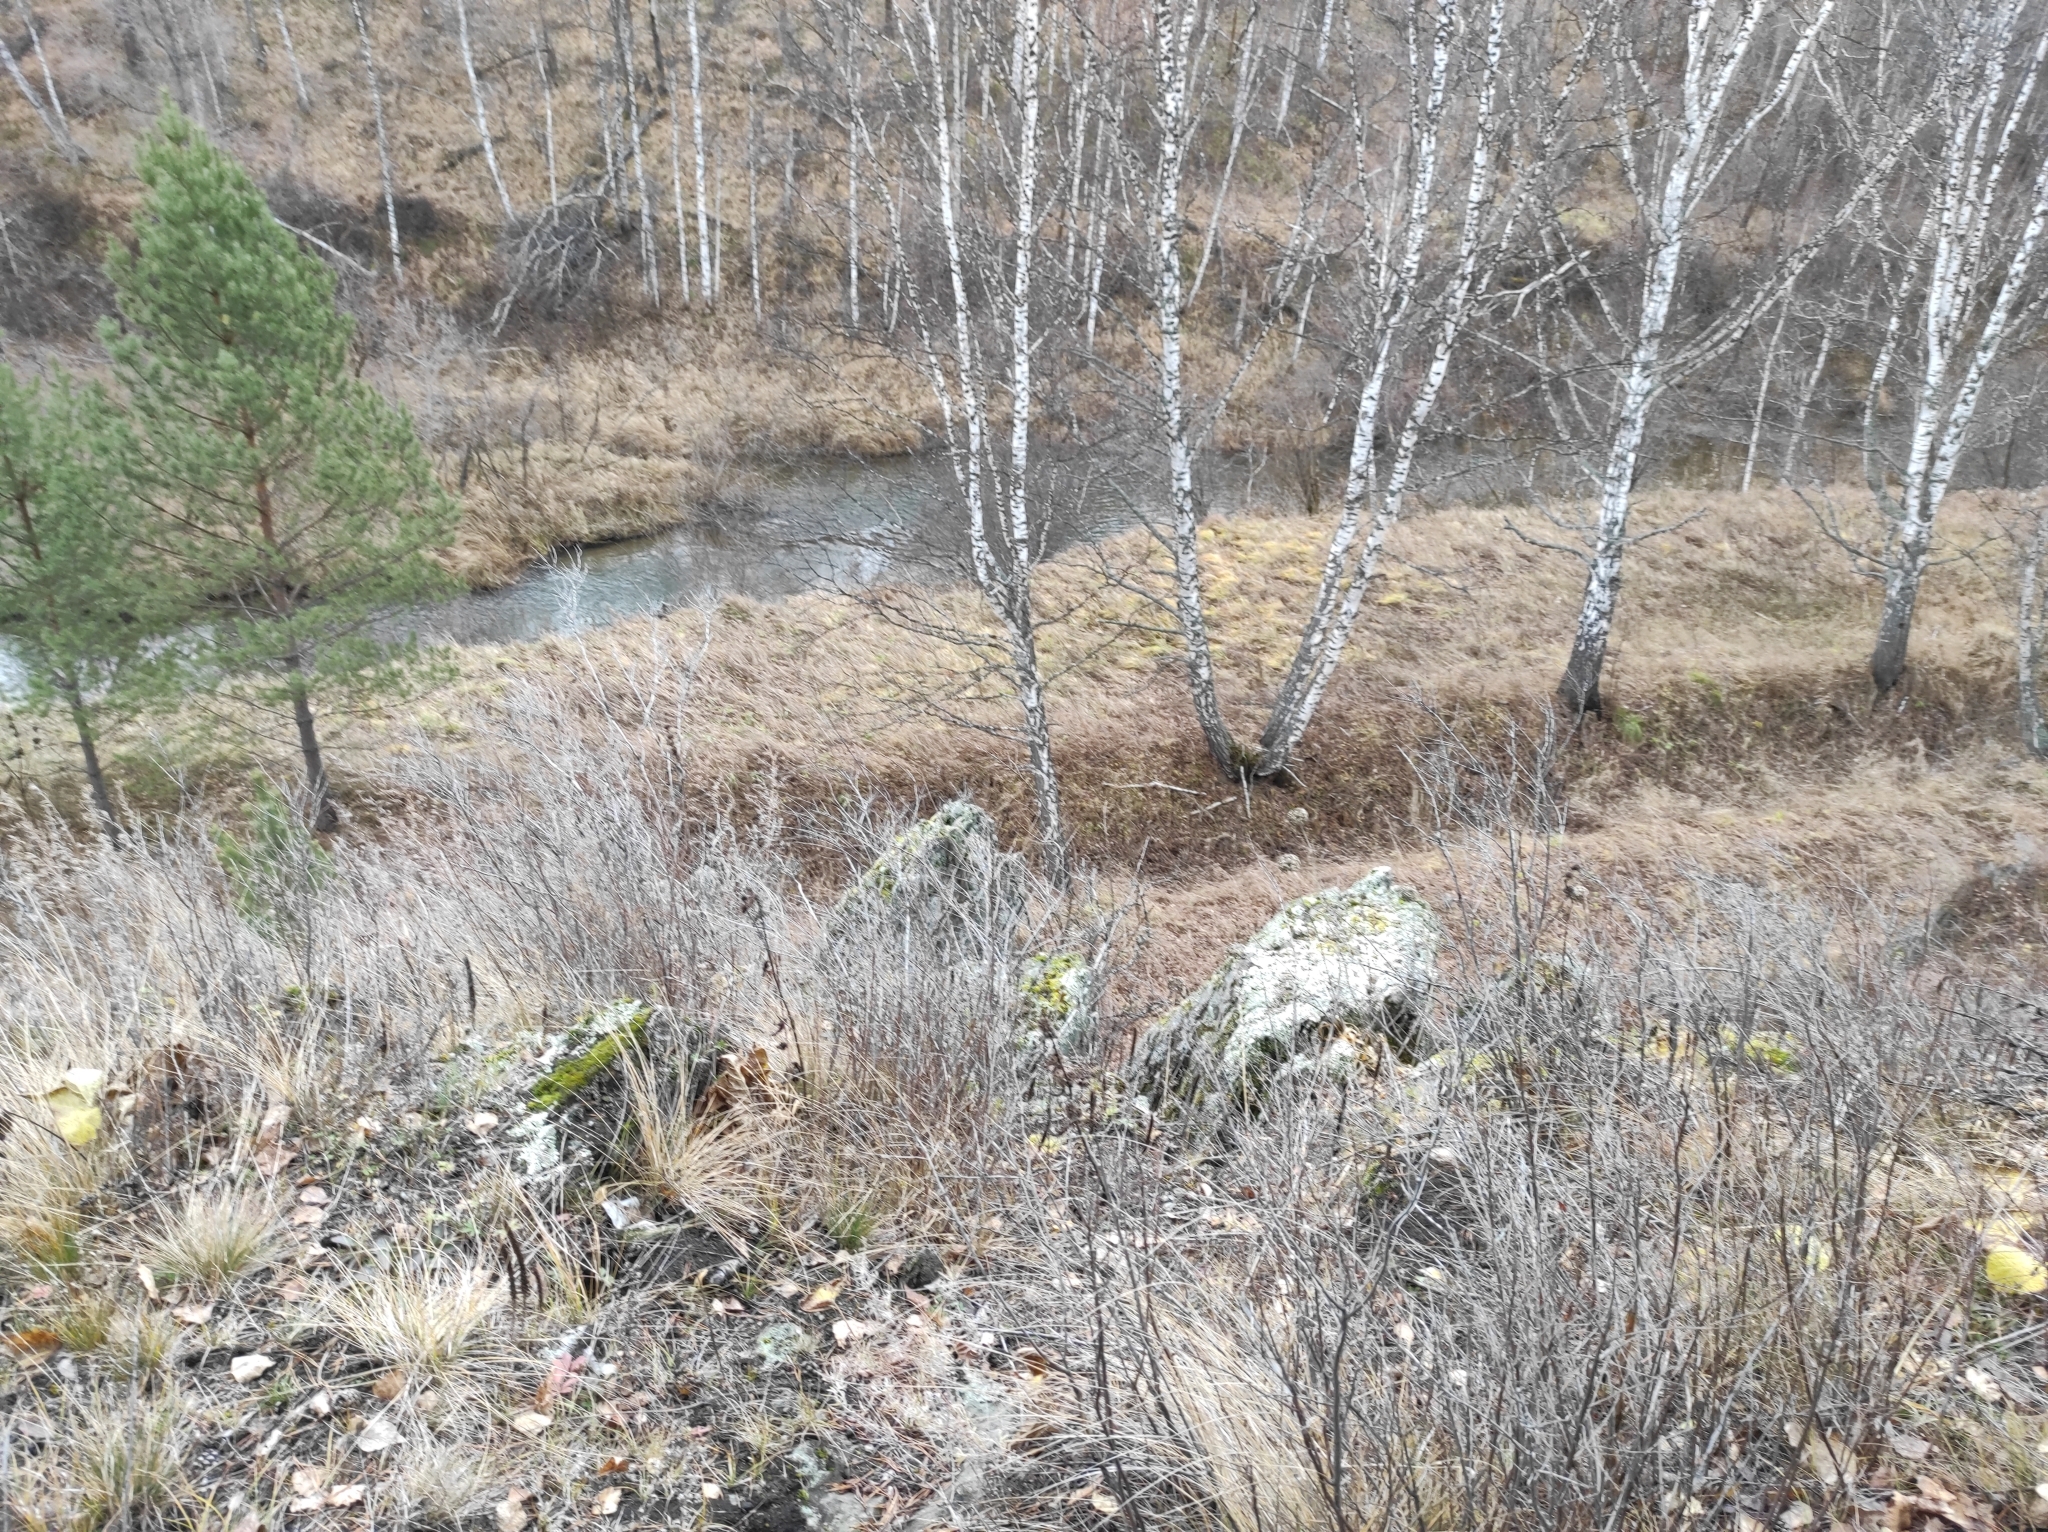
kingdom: Plantae
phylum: Tracheophyta
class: Magnoliopsida
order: Saxifragales
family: Crassulaceae
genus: Orostachys
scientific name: Orostachys spinosa
